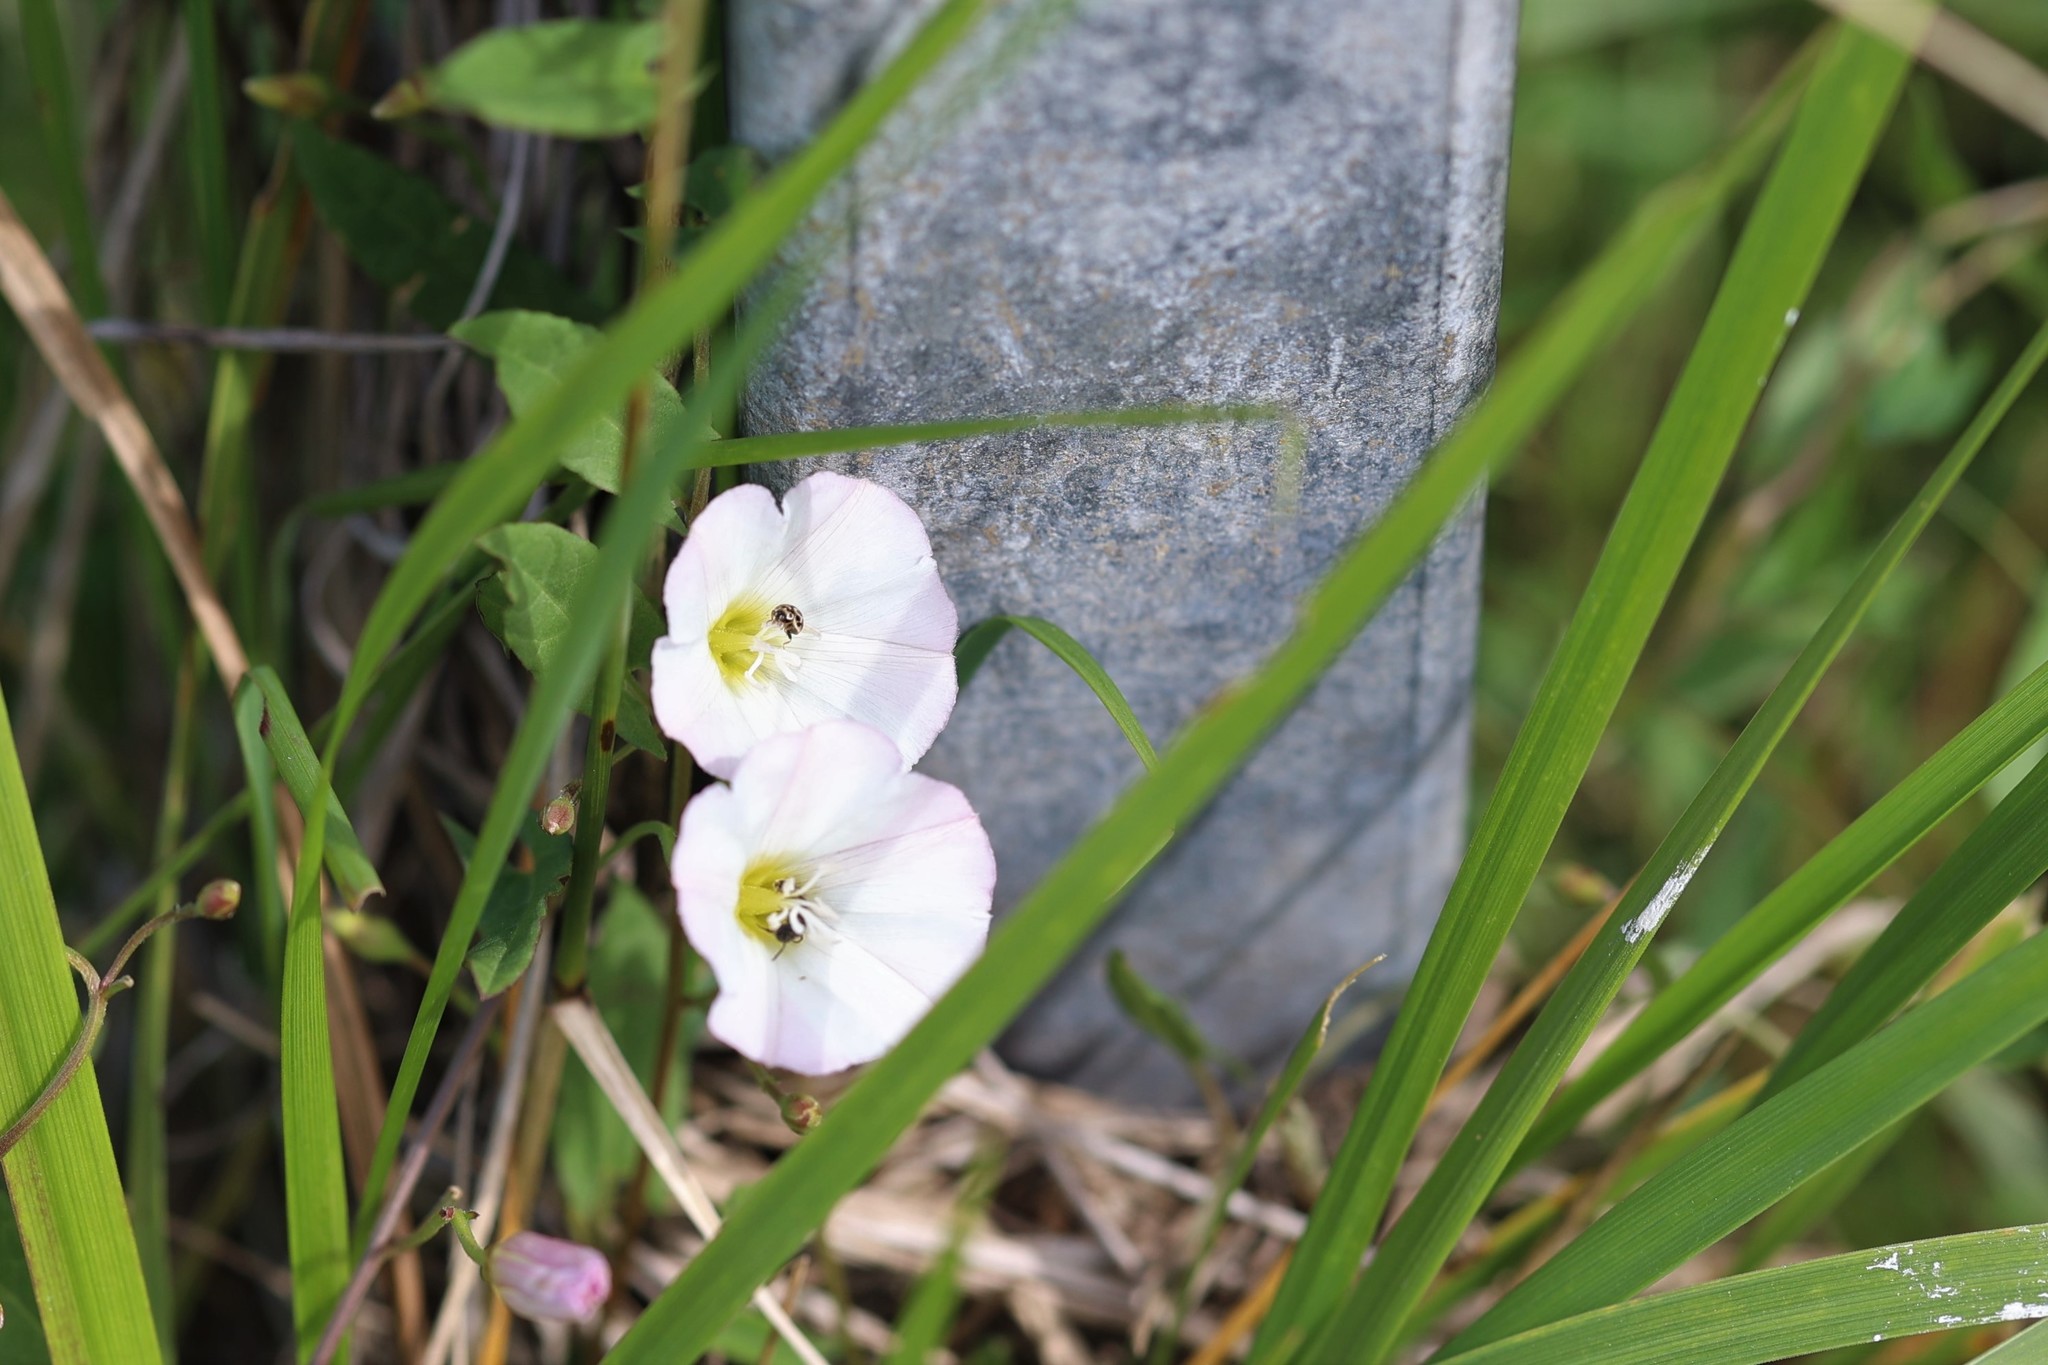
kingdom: Plantae
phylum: Tracheophyta
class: Magnoliopsida
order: Solanales
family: Convolvulaceae
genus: Convolvulus
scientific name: Convolvulus arvensis
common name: Field bindweed
